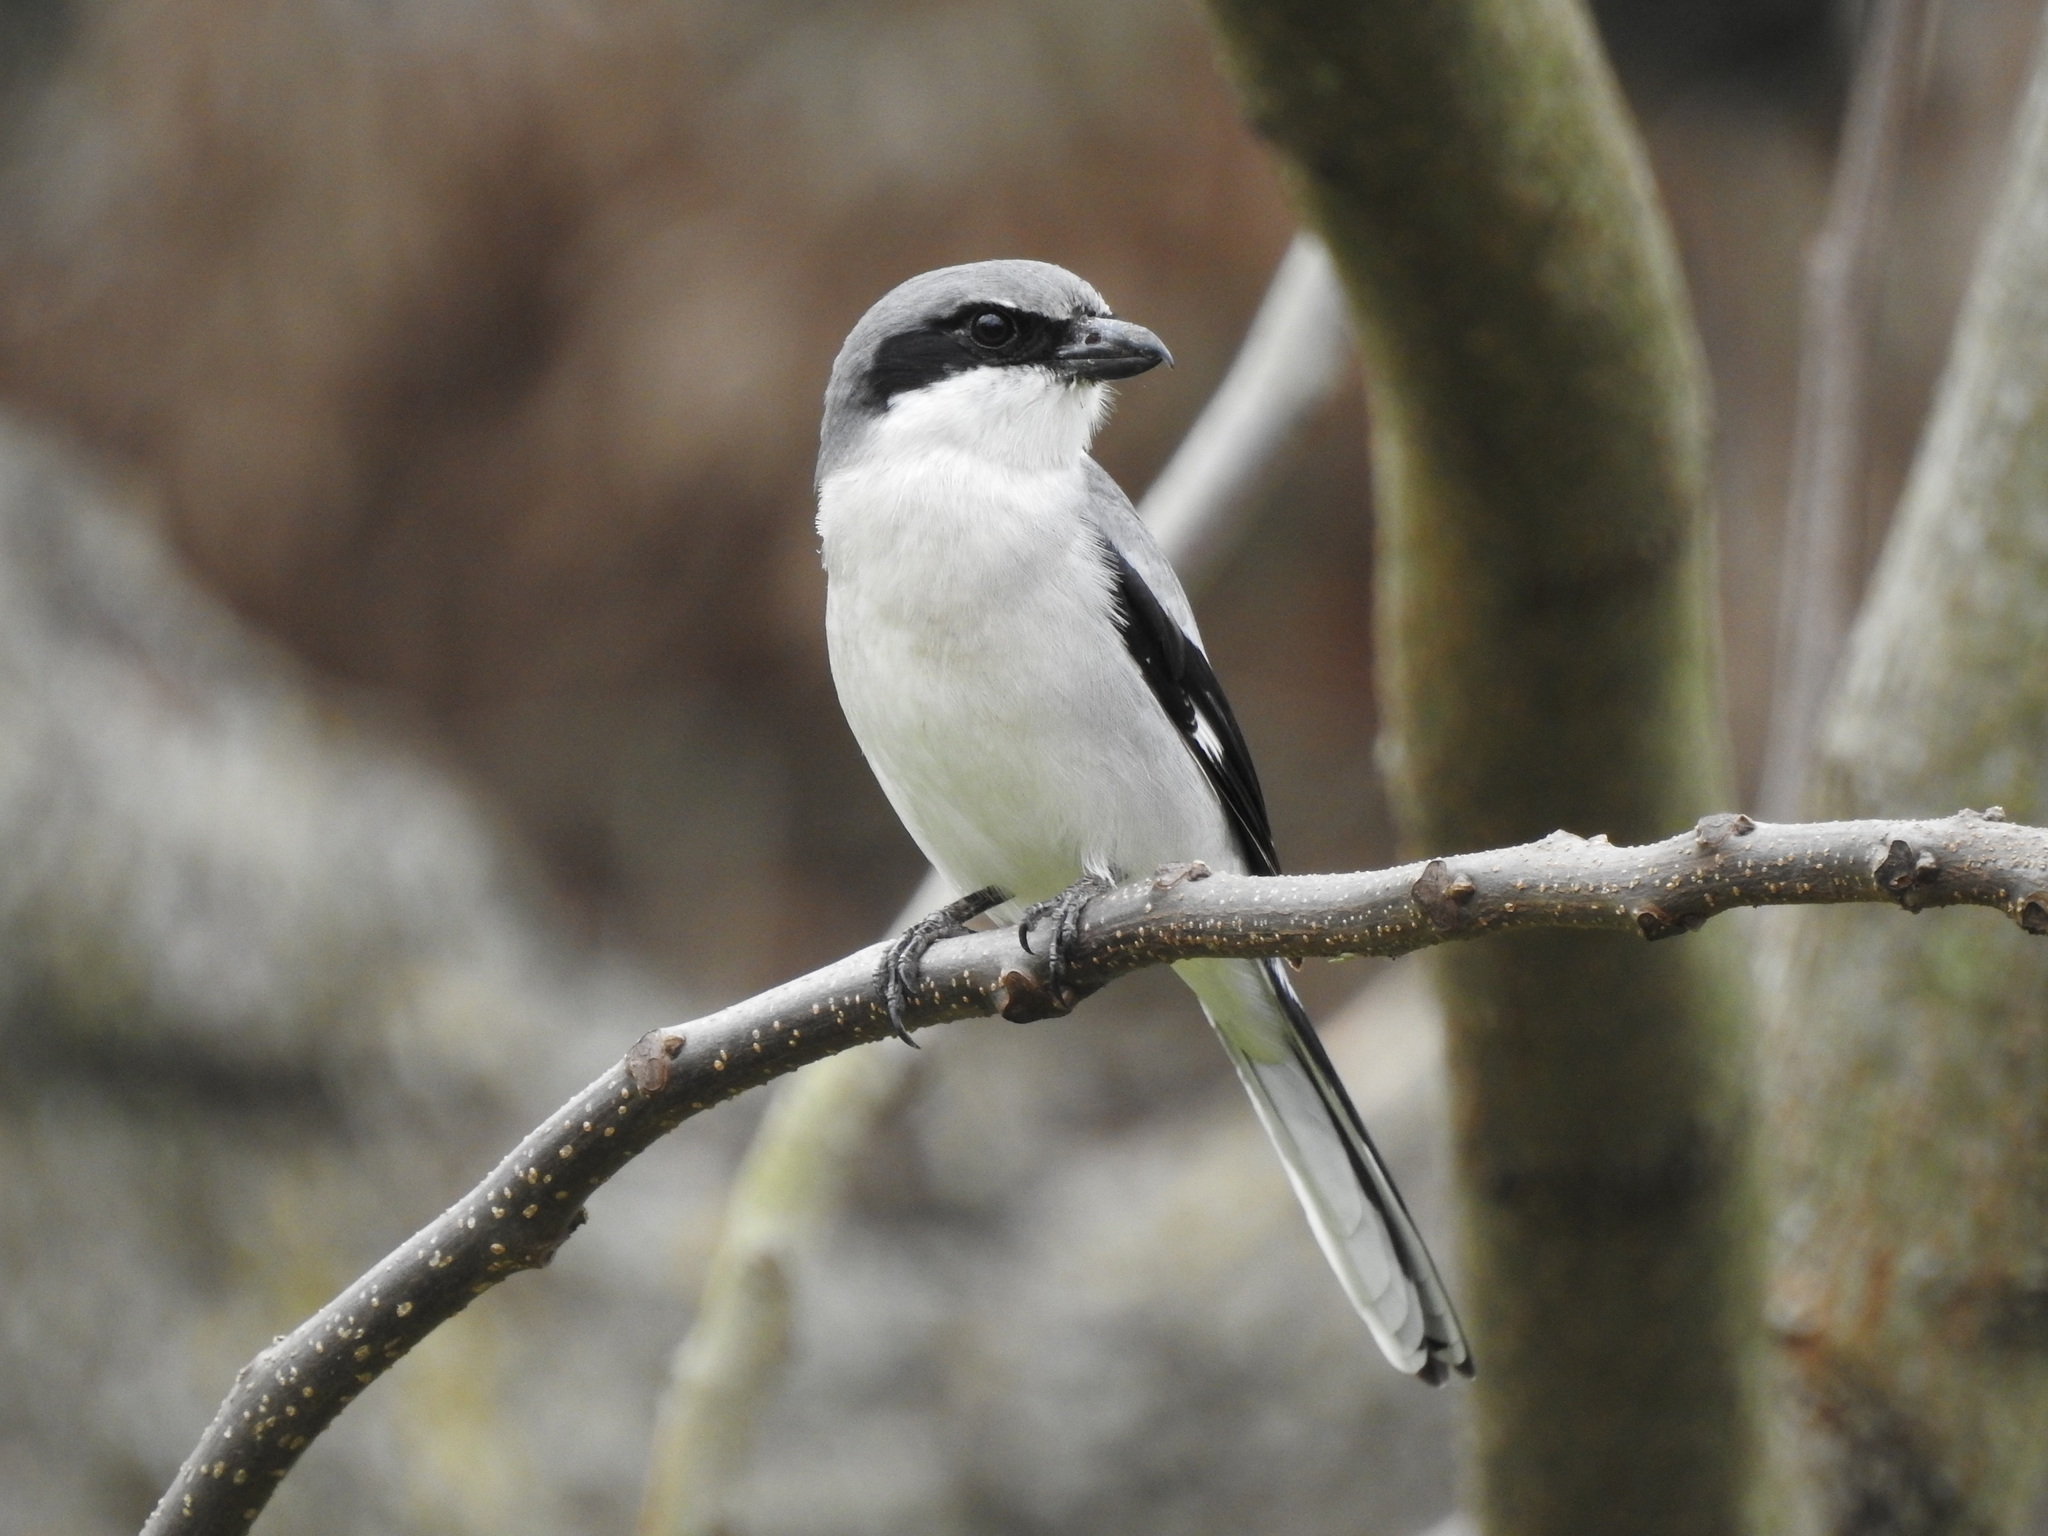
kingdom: Animalia
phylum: Chordata
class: Aves
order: Passeriformes
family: Laniidae
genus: Lanius
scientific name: Lanius ludovicianus
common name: Loggerhead shrike
